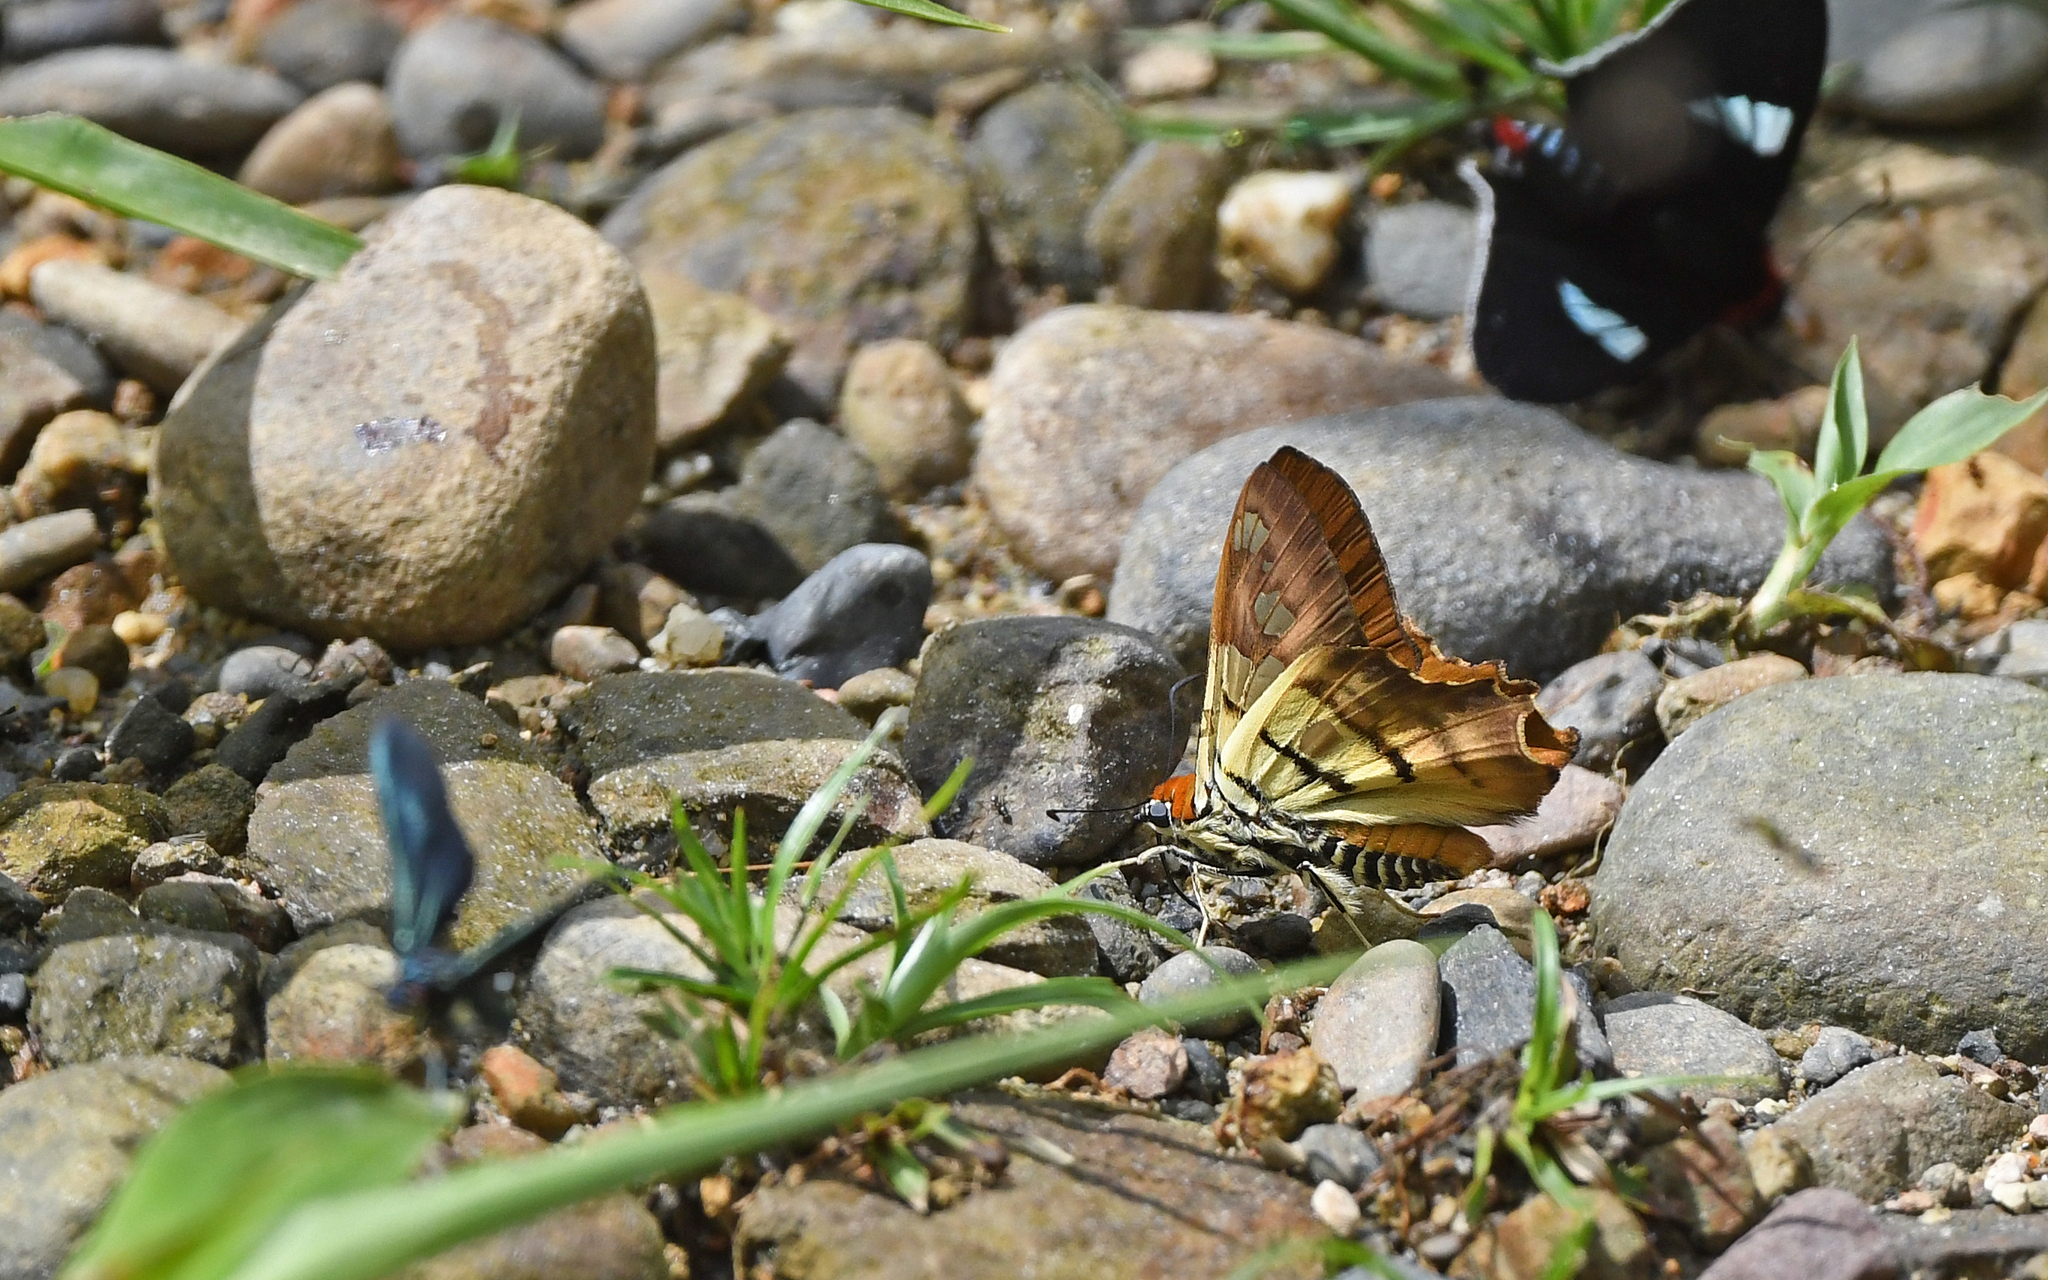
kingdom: Animalia
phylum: Arthropoda
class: Insecta
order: Lepidoptera
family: Hesperiidae
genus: Myscelus
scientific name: Myscelus phoronis
